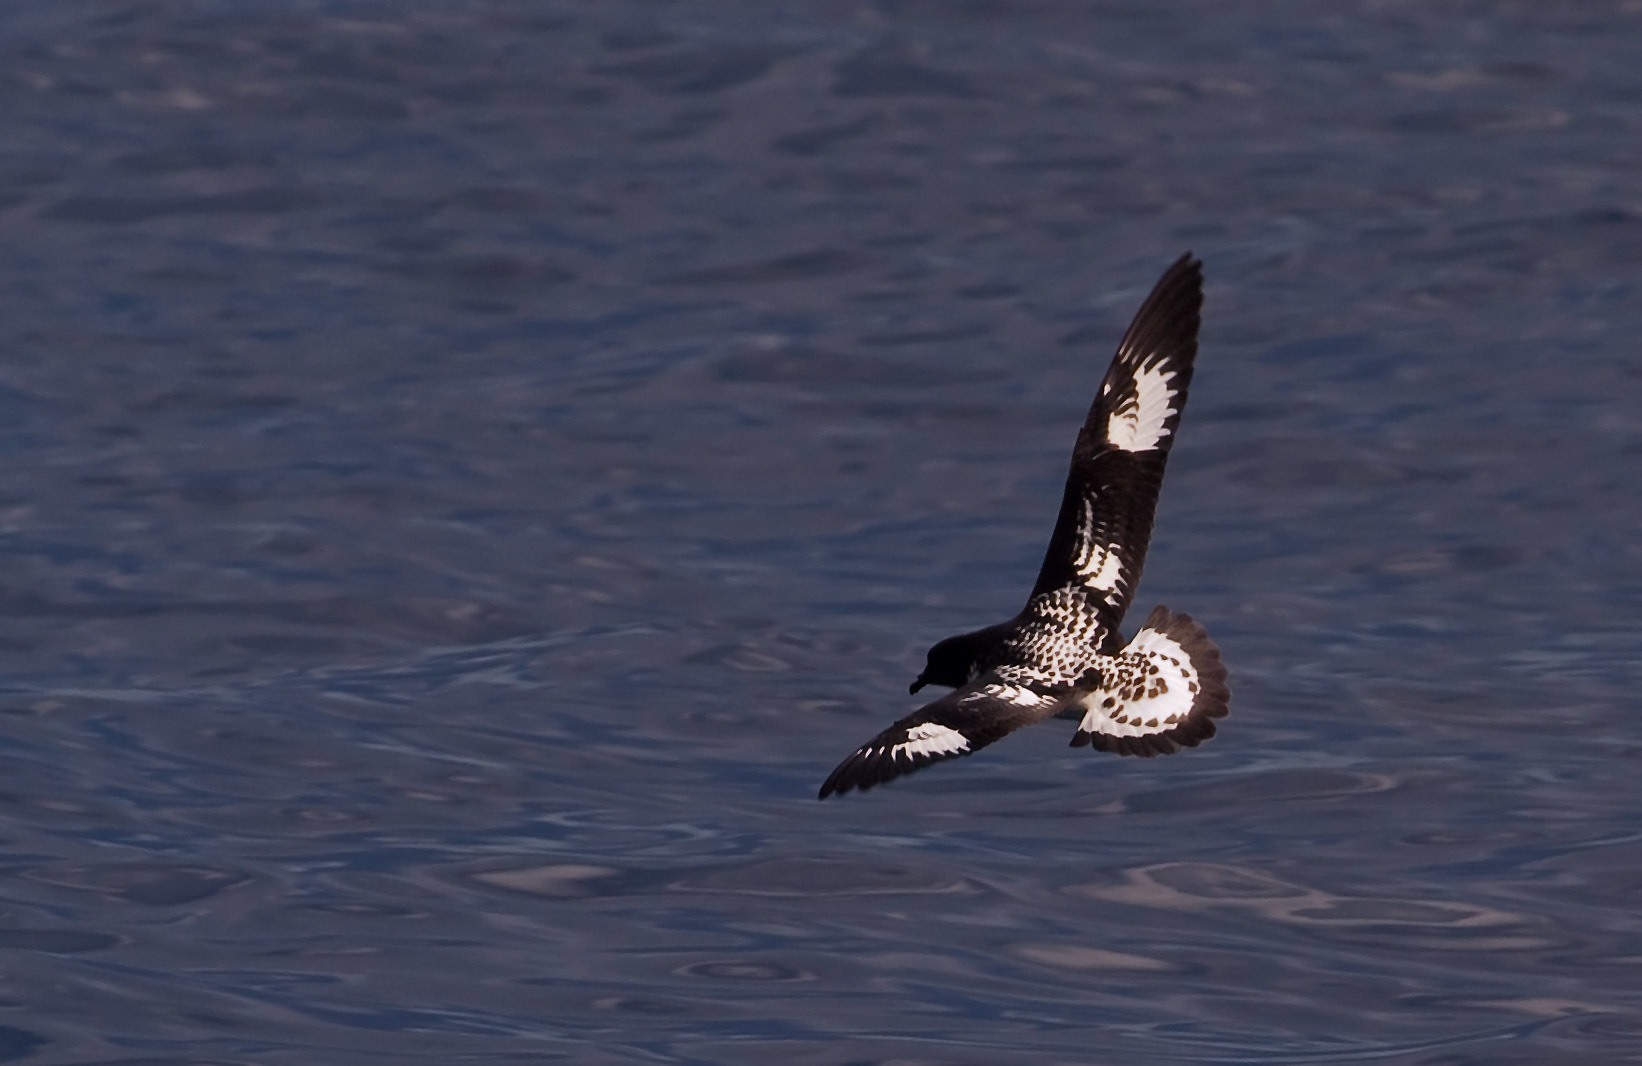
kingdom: Animalia
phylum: Chordata
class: Aves
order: Procellariiformes
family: Procellariidae
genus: Daption
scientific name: Daption capense
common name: Cape petrel
